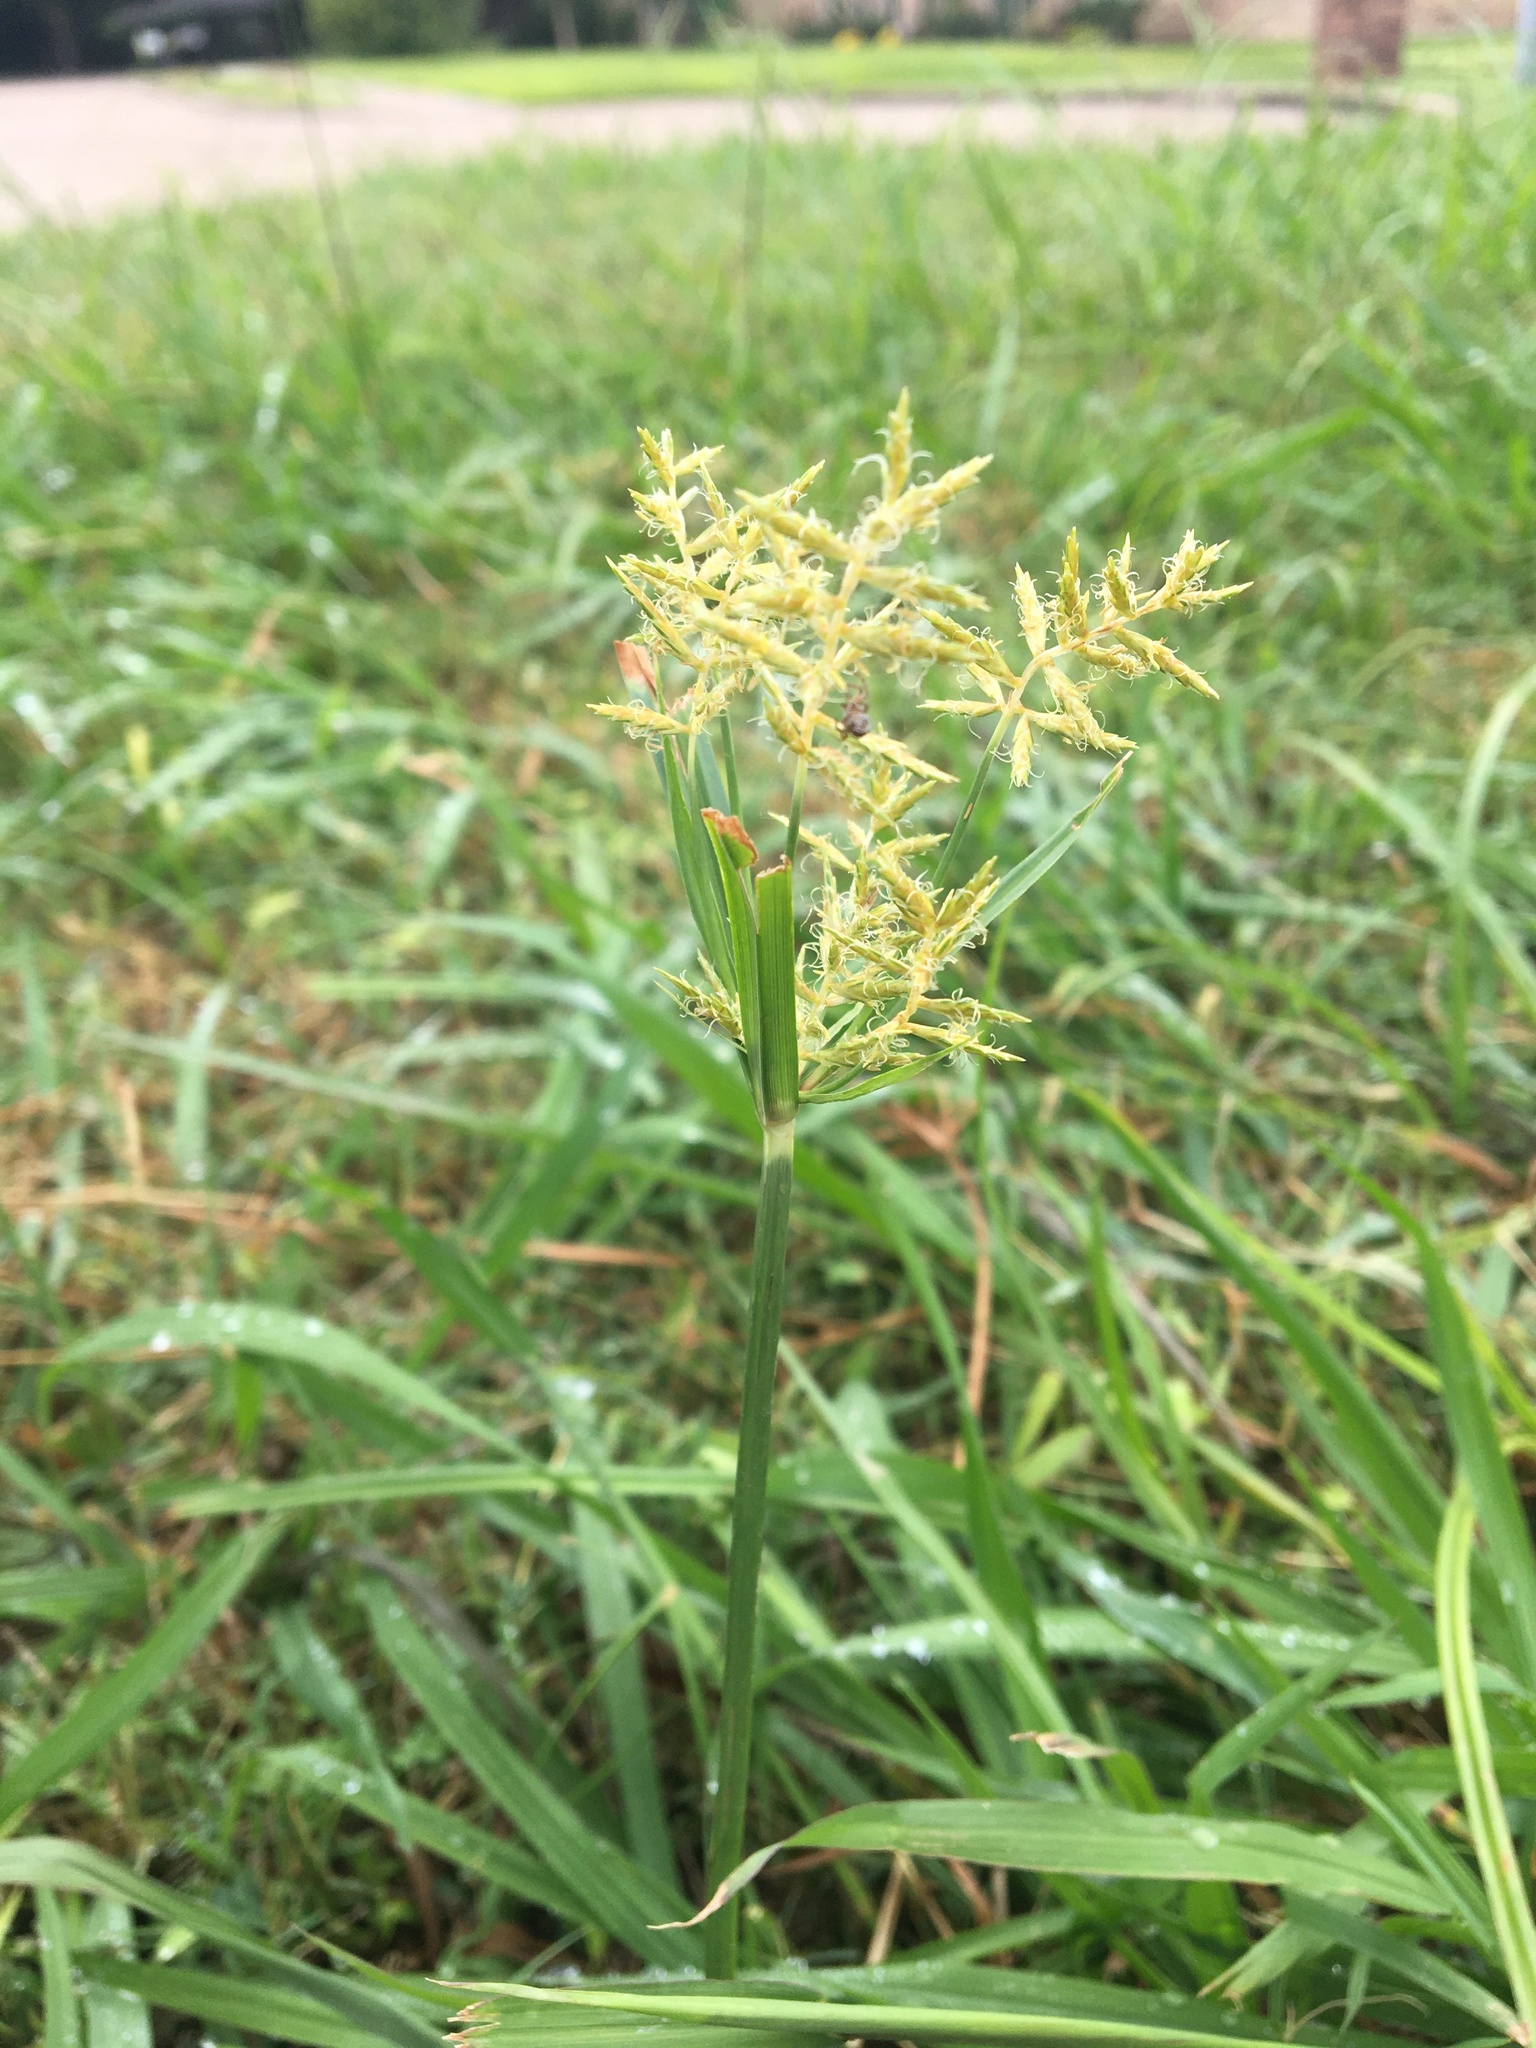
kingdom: Plantae
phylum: Tracheophyta
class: Liliopsida
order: Poales
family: Cyperaceae
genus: Cyperus
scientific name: Cyperus esculentus
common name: Yellow nutsedge
